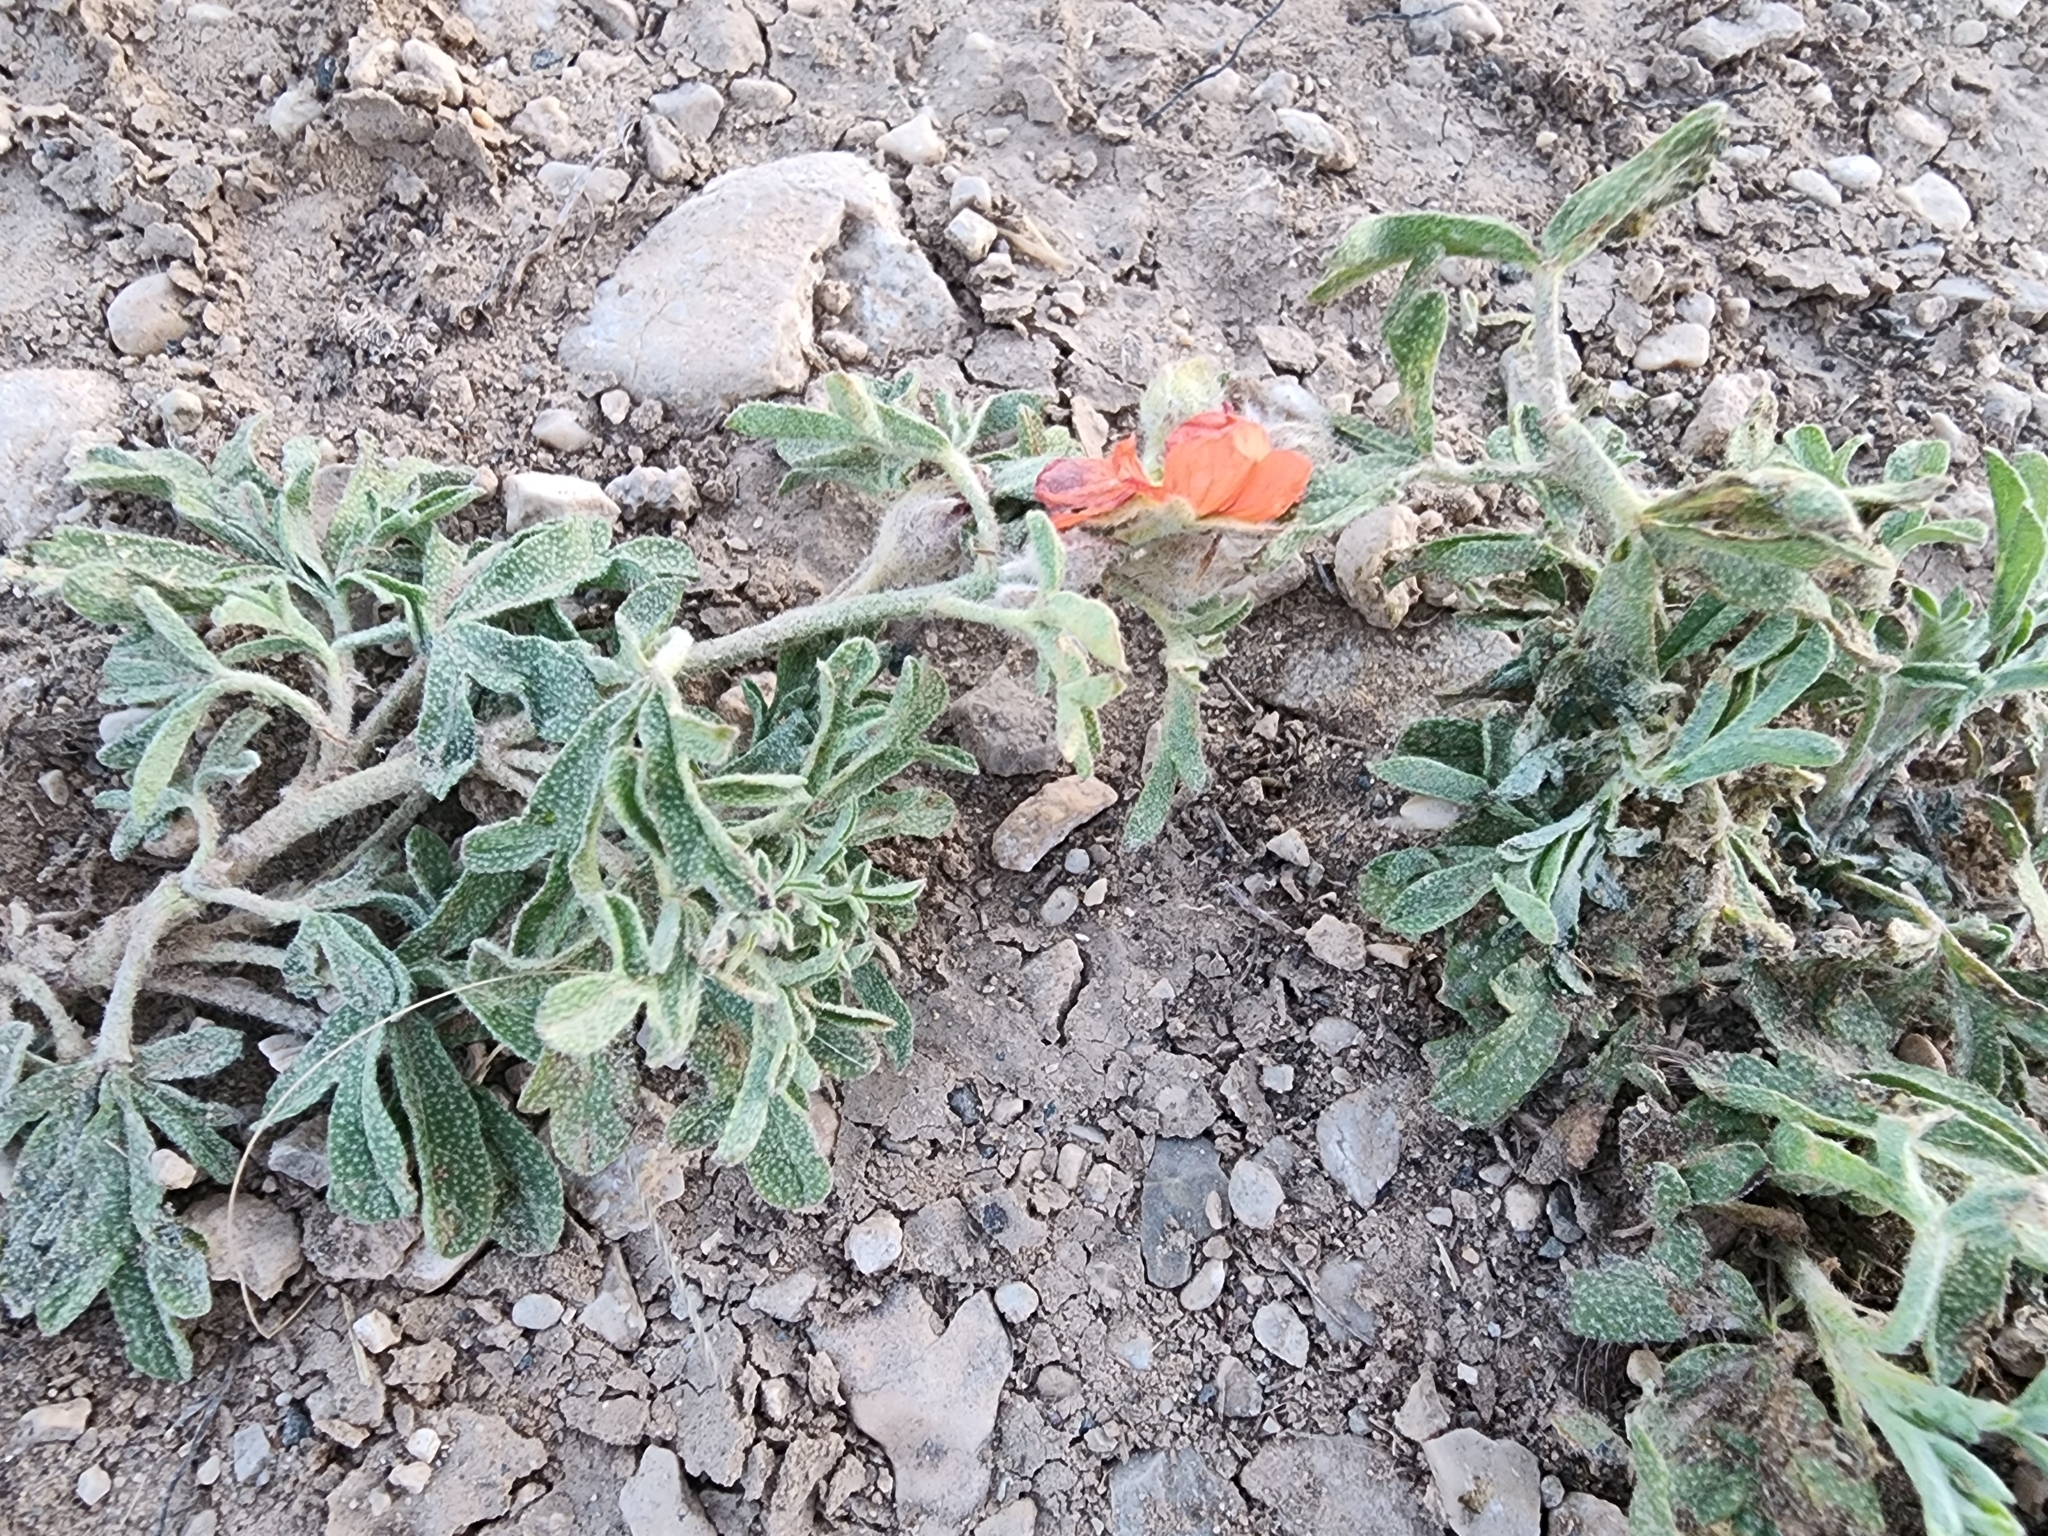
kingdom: Plantae
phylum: Tracheophyta
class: Magnoliopsida
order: Malvales
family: Malvaceae
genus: Sphaeralcea
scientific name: Sphaeralcea coccinea
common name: Moss-rose
